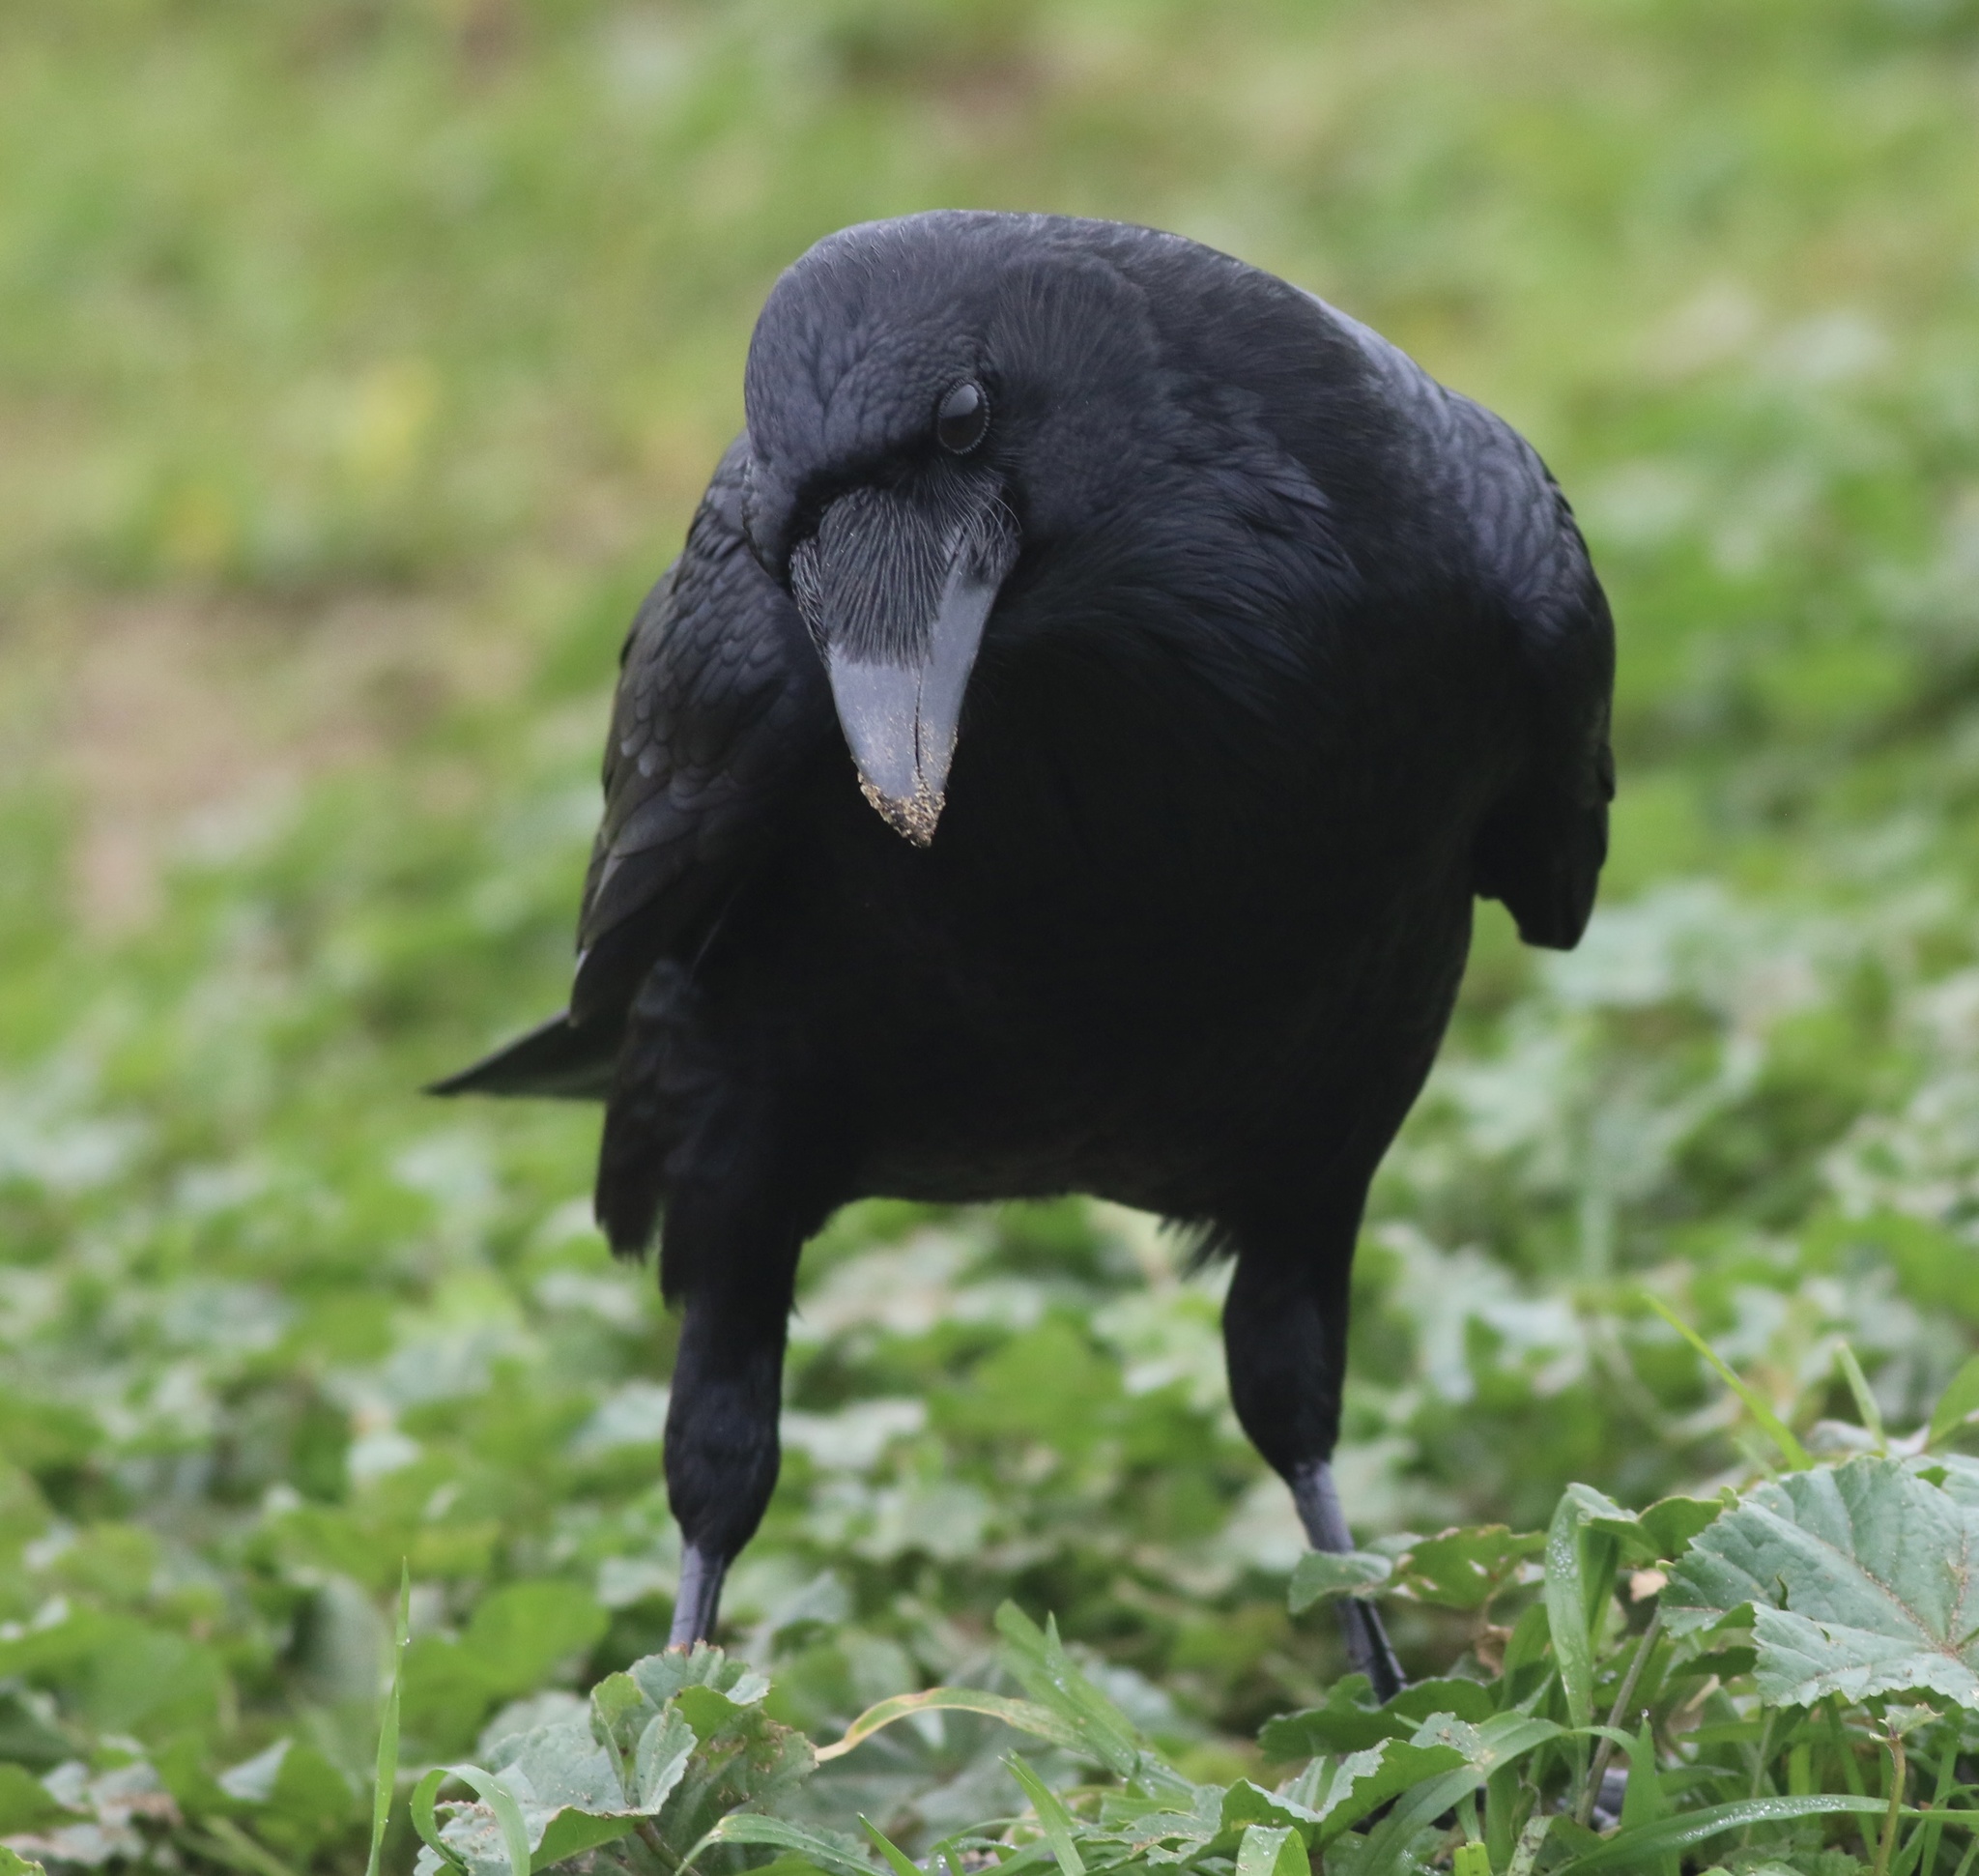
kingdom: Animalia
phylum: Chordata
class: Aves
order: Passeriformes
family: Corvidae
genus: Corvus
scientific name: Corvus corax
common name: Common raven
